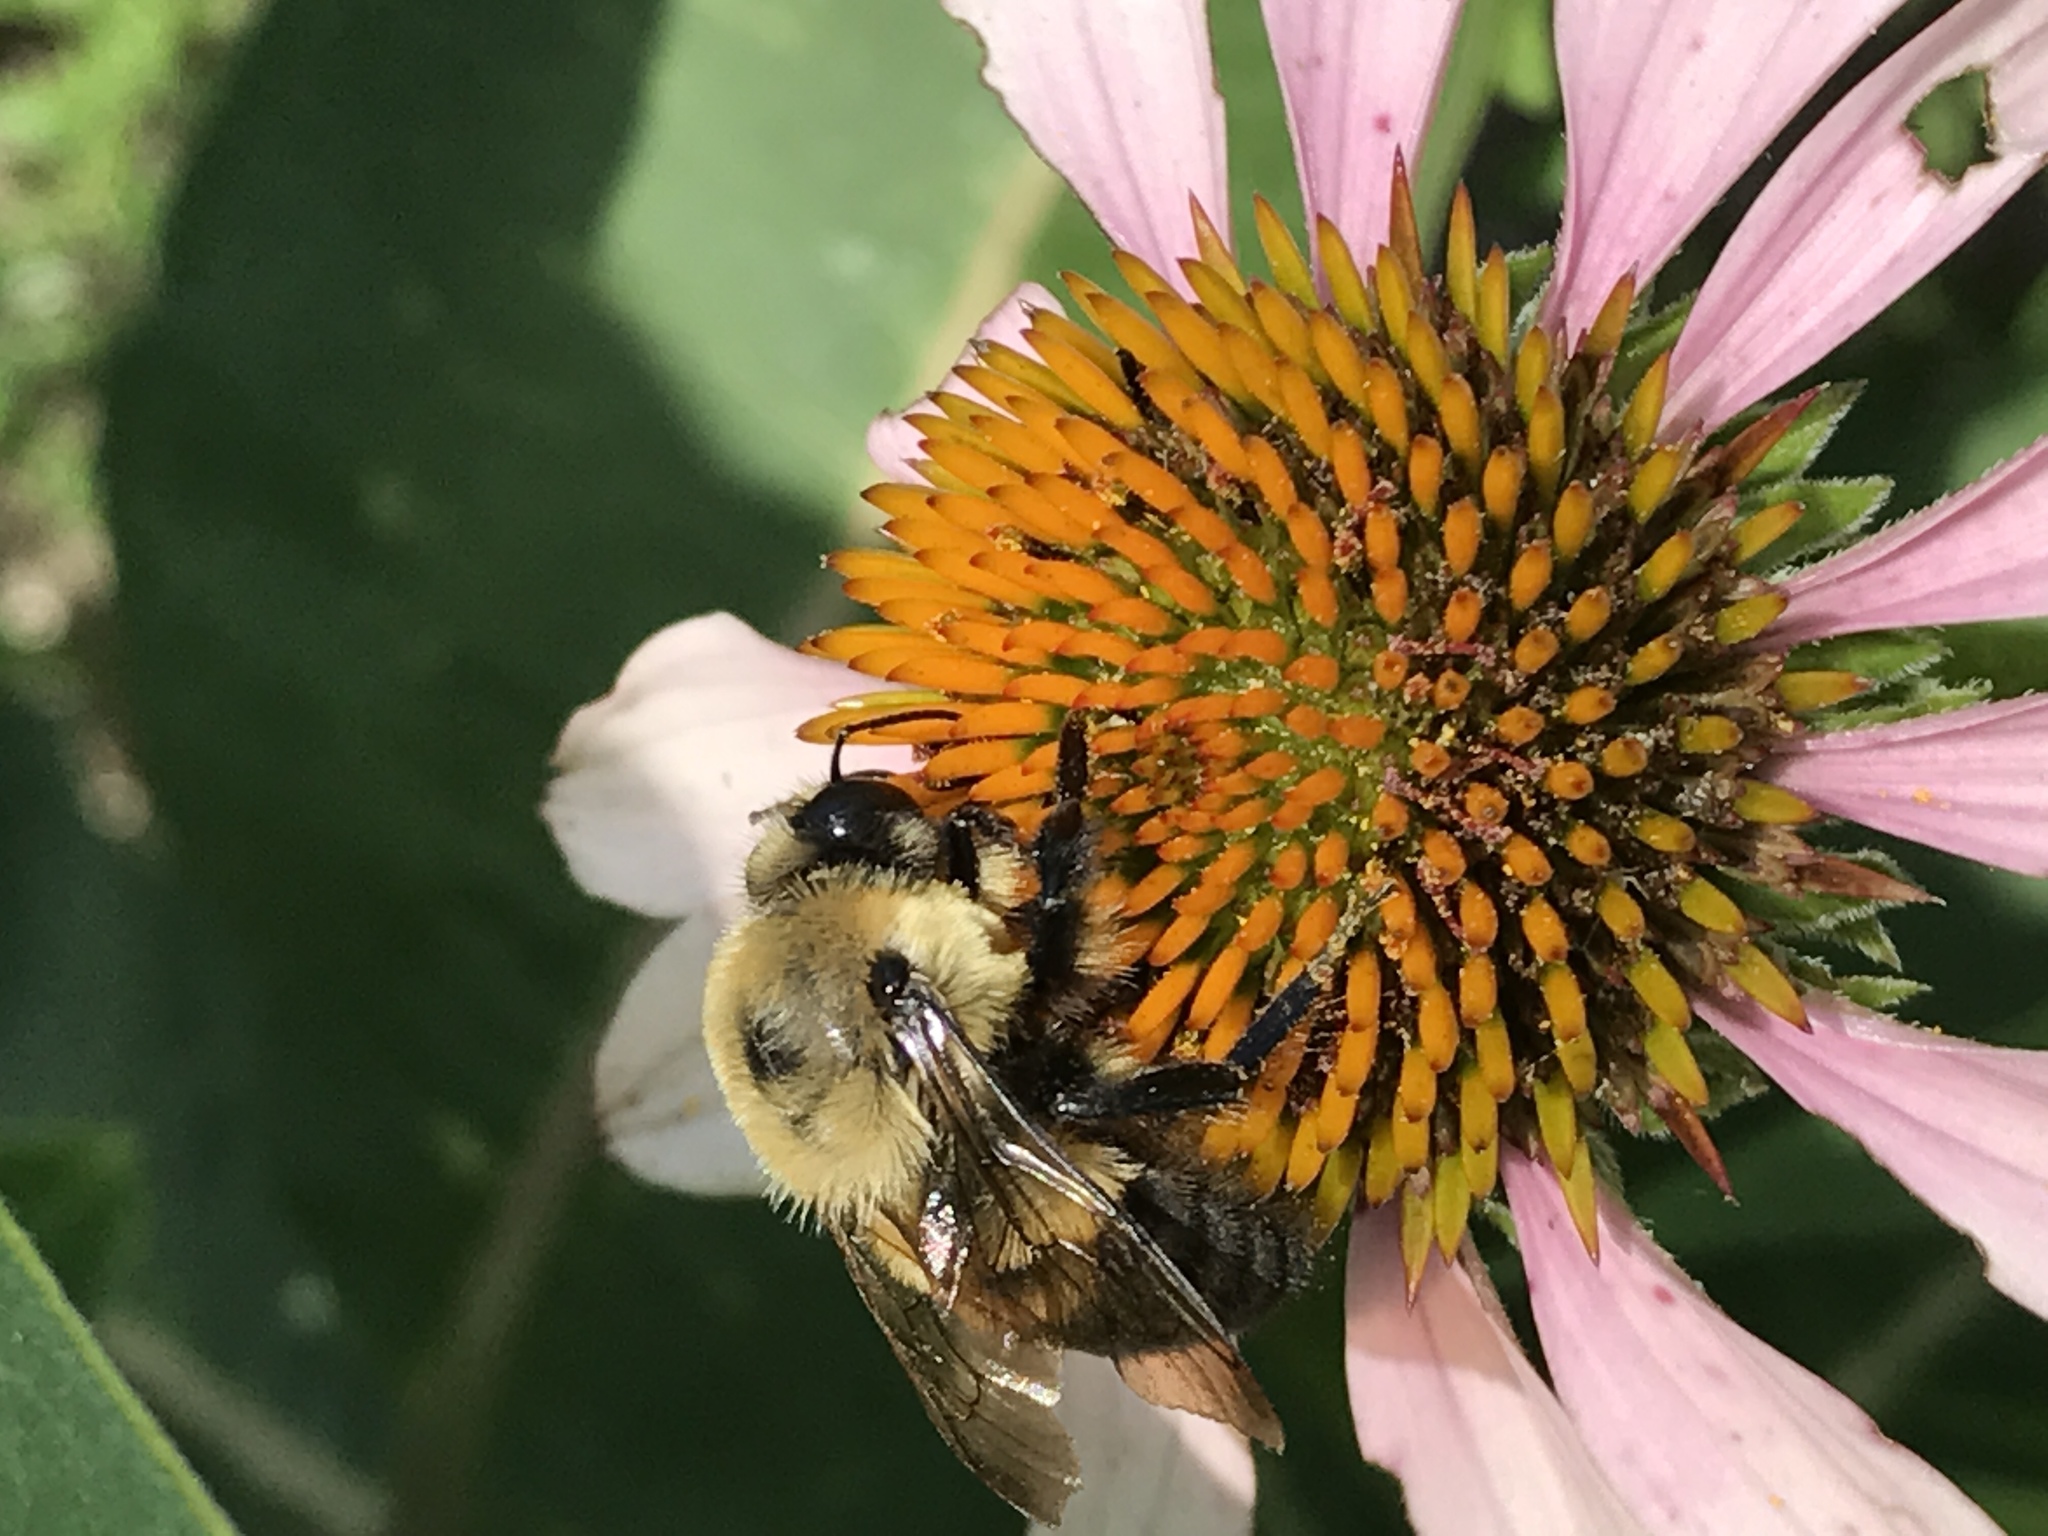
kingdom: Animalia
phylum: Arthropoda
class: Insecta
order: Hymenoptera
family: Apidae
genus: Bombus
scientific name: Bombus griseocollis
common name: Brown-belted bumble bee
